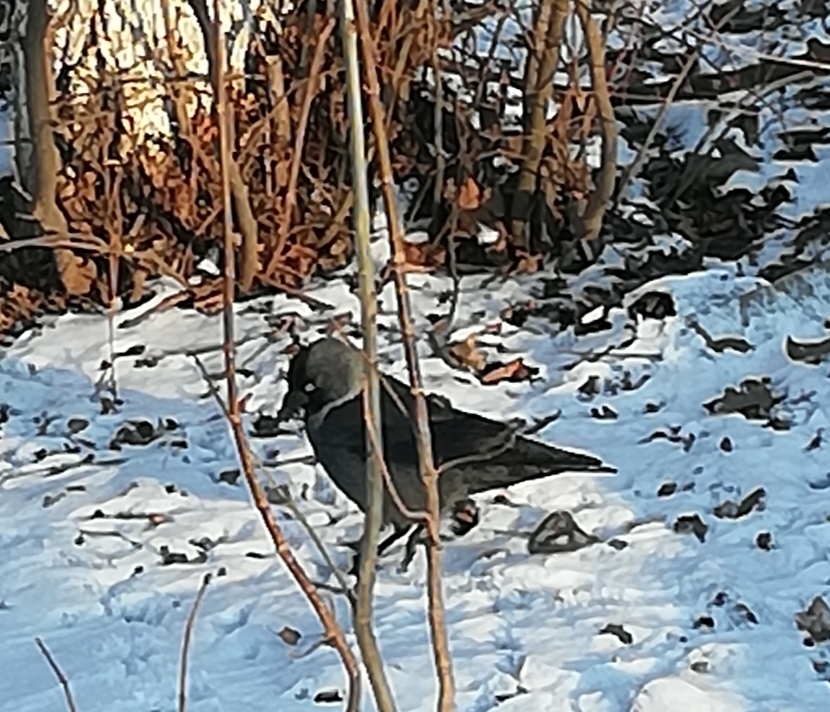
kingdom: Animalia
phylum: Chordata
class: Aves
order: Passeriformes
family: Corvidae
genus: Coloeus
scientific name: Coloeus monedula
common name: Western jackdaw
